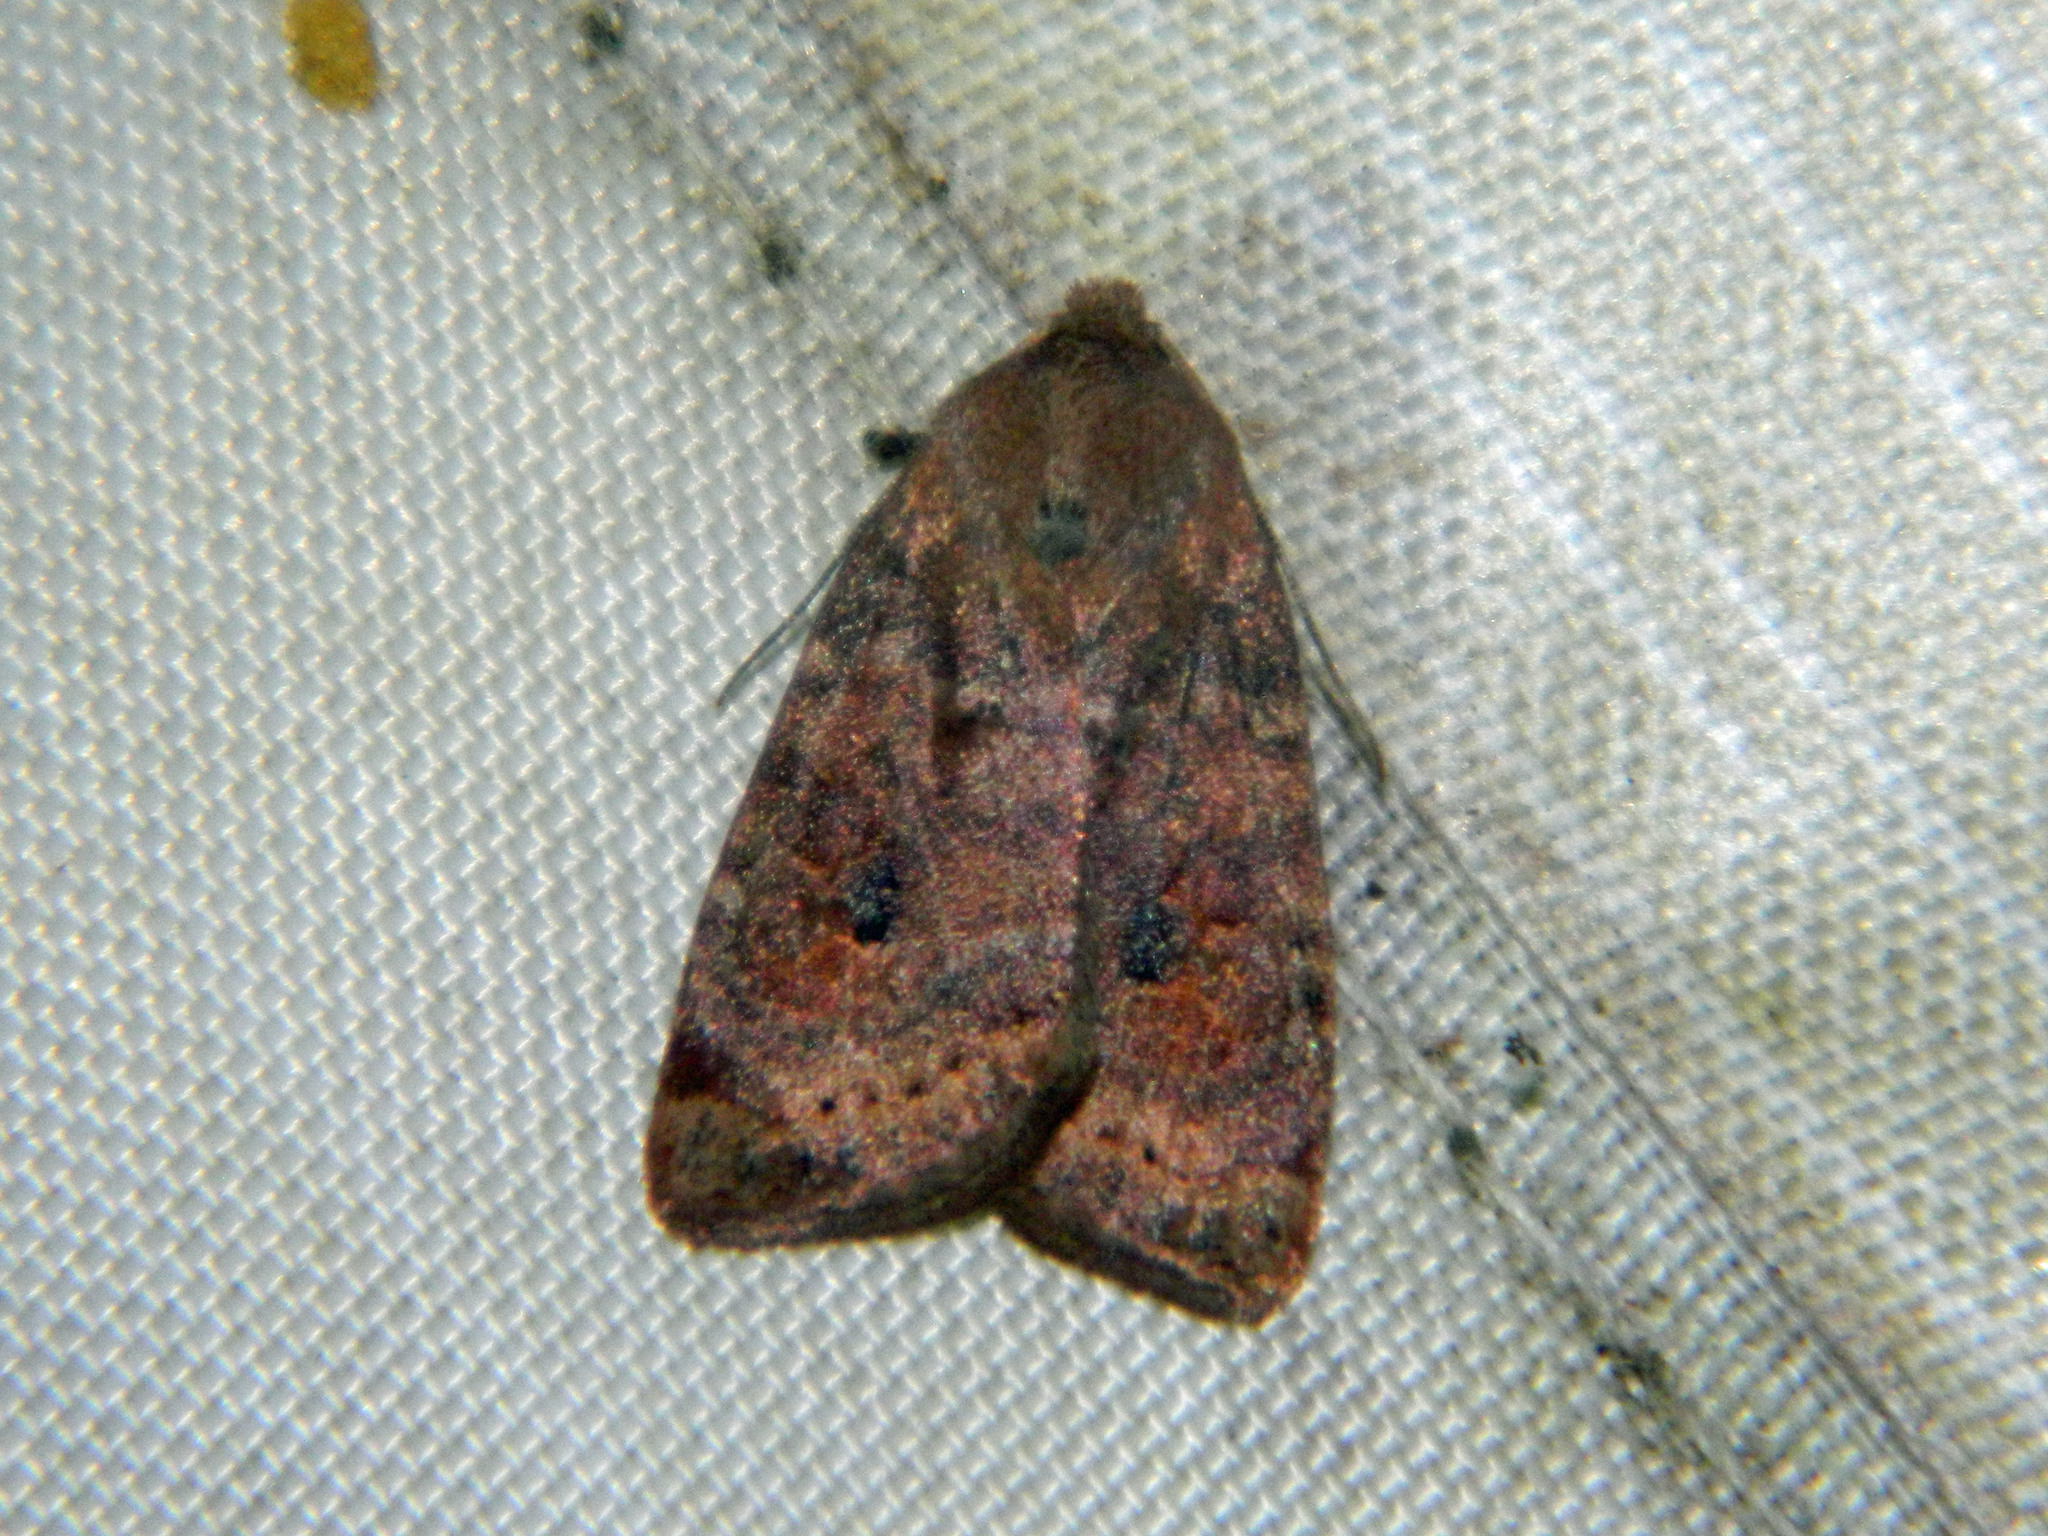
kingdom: Animalia
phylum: Arthropoda
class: Insecta
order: Lepidoptera
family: Noctuidae
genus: Anathix
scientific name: Anathix puta
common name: Puta sallow
